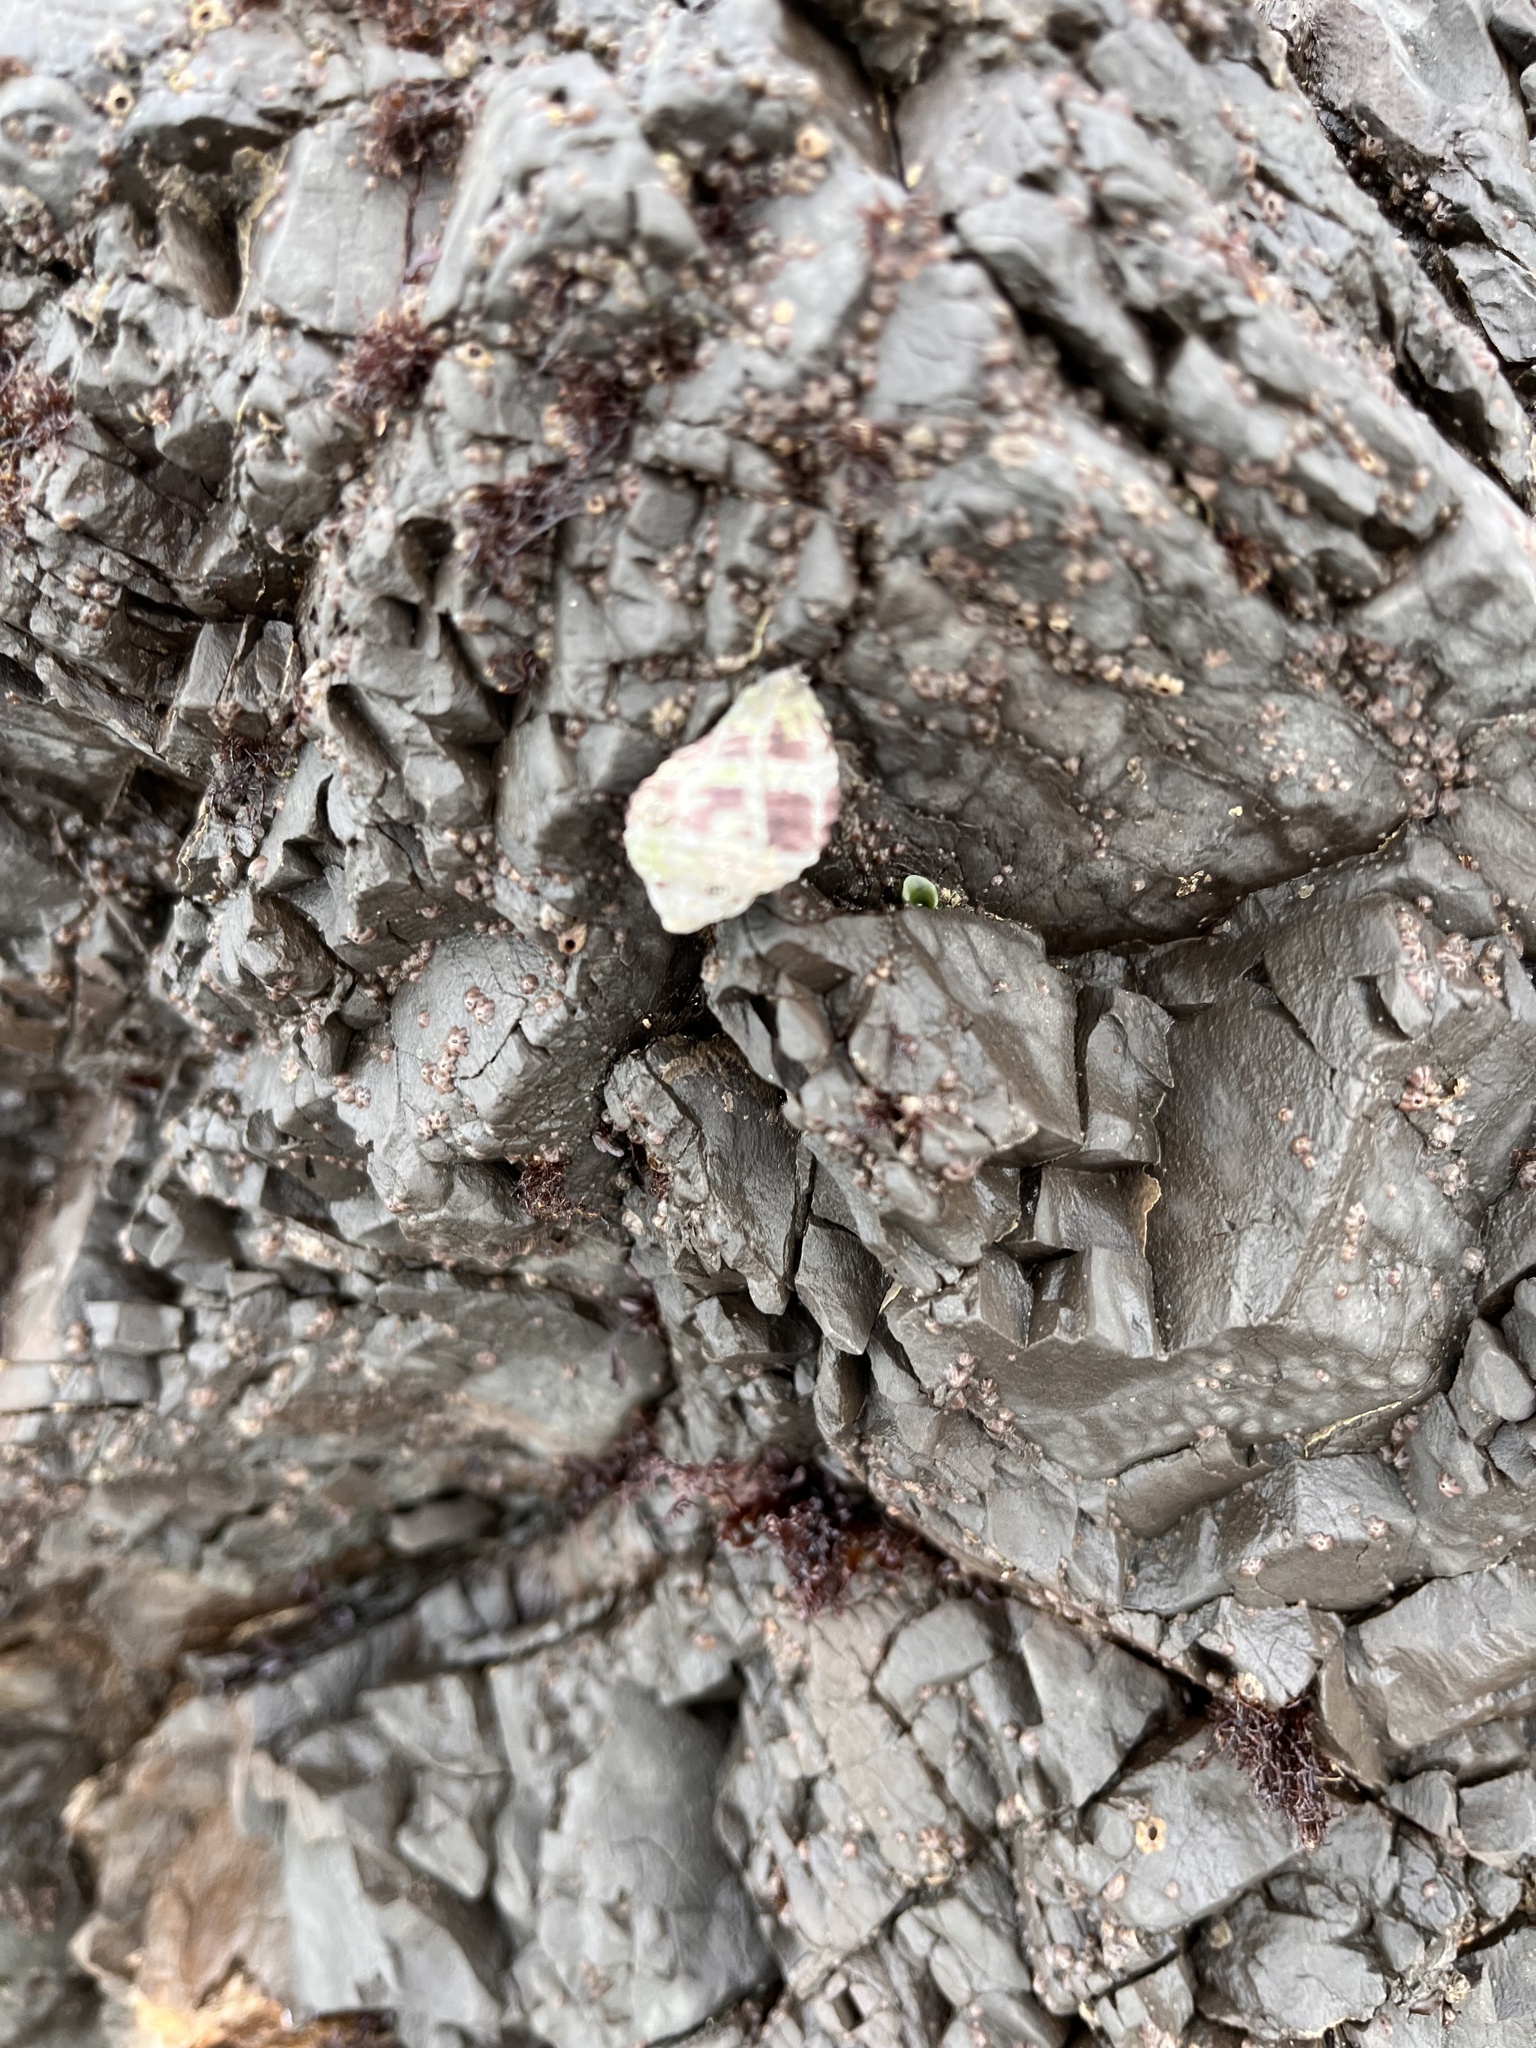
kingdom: Animalia
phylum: Mollusca
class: Gastropoda
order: Neogastropoda
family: Muricidae
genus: Paciocinebrina
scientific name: Paciocinebrina circumtexta
